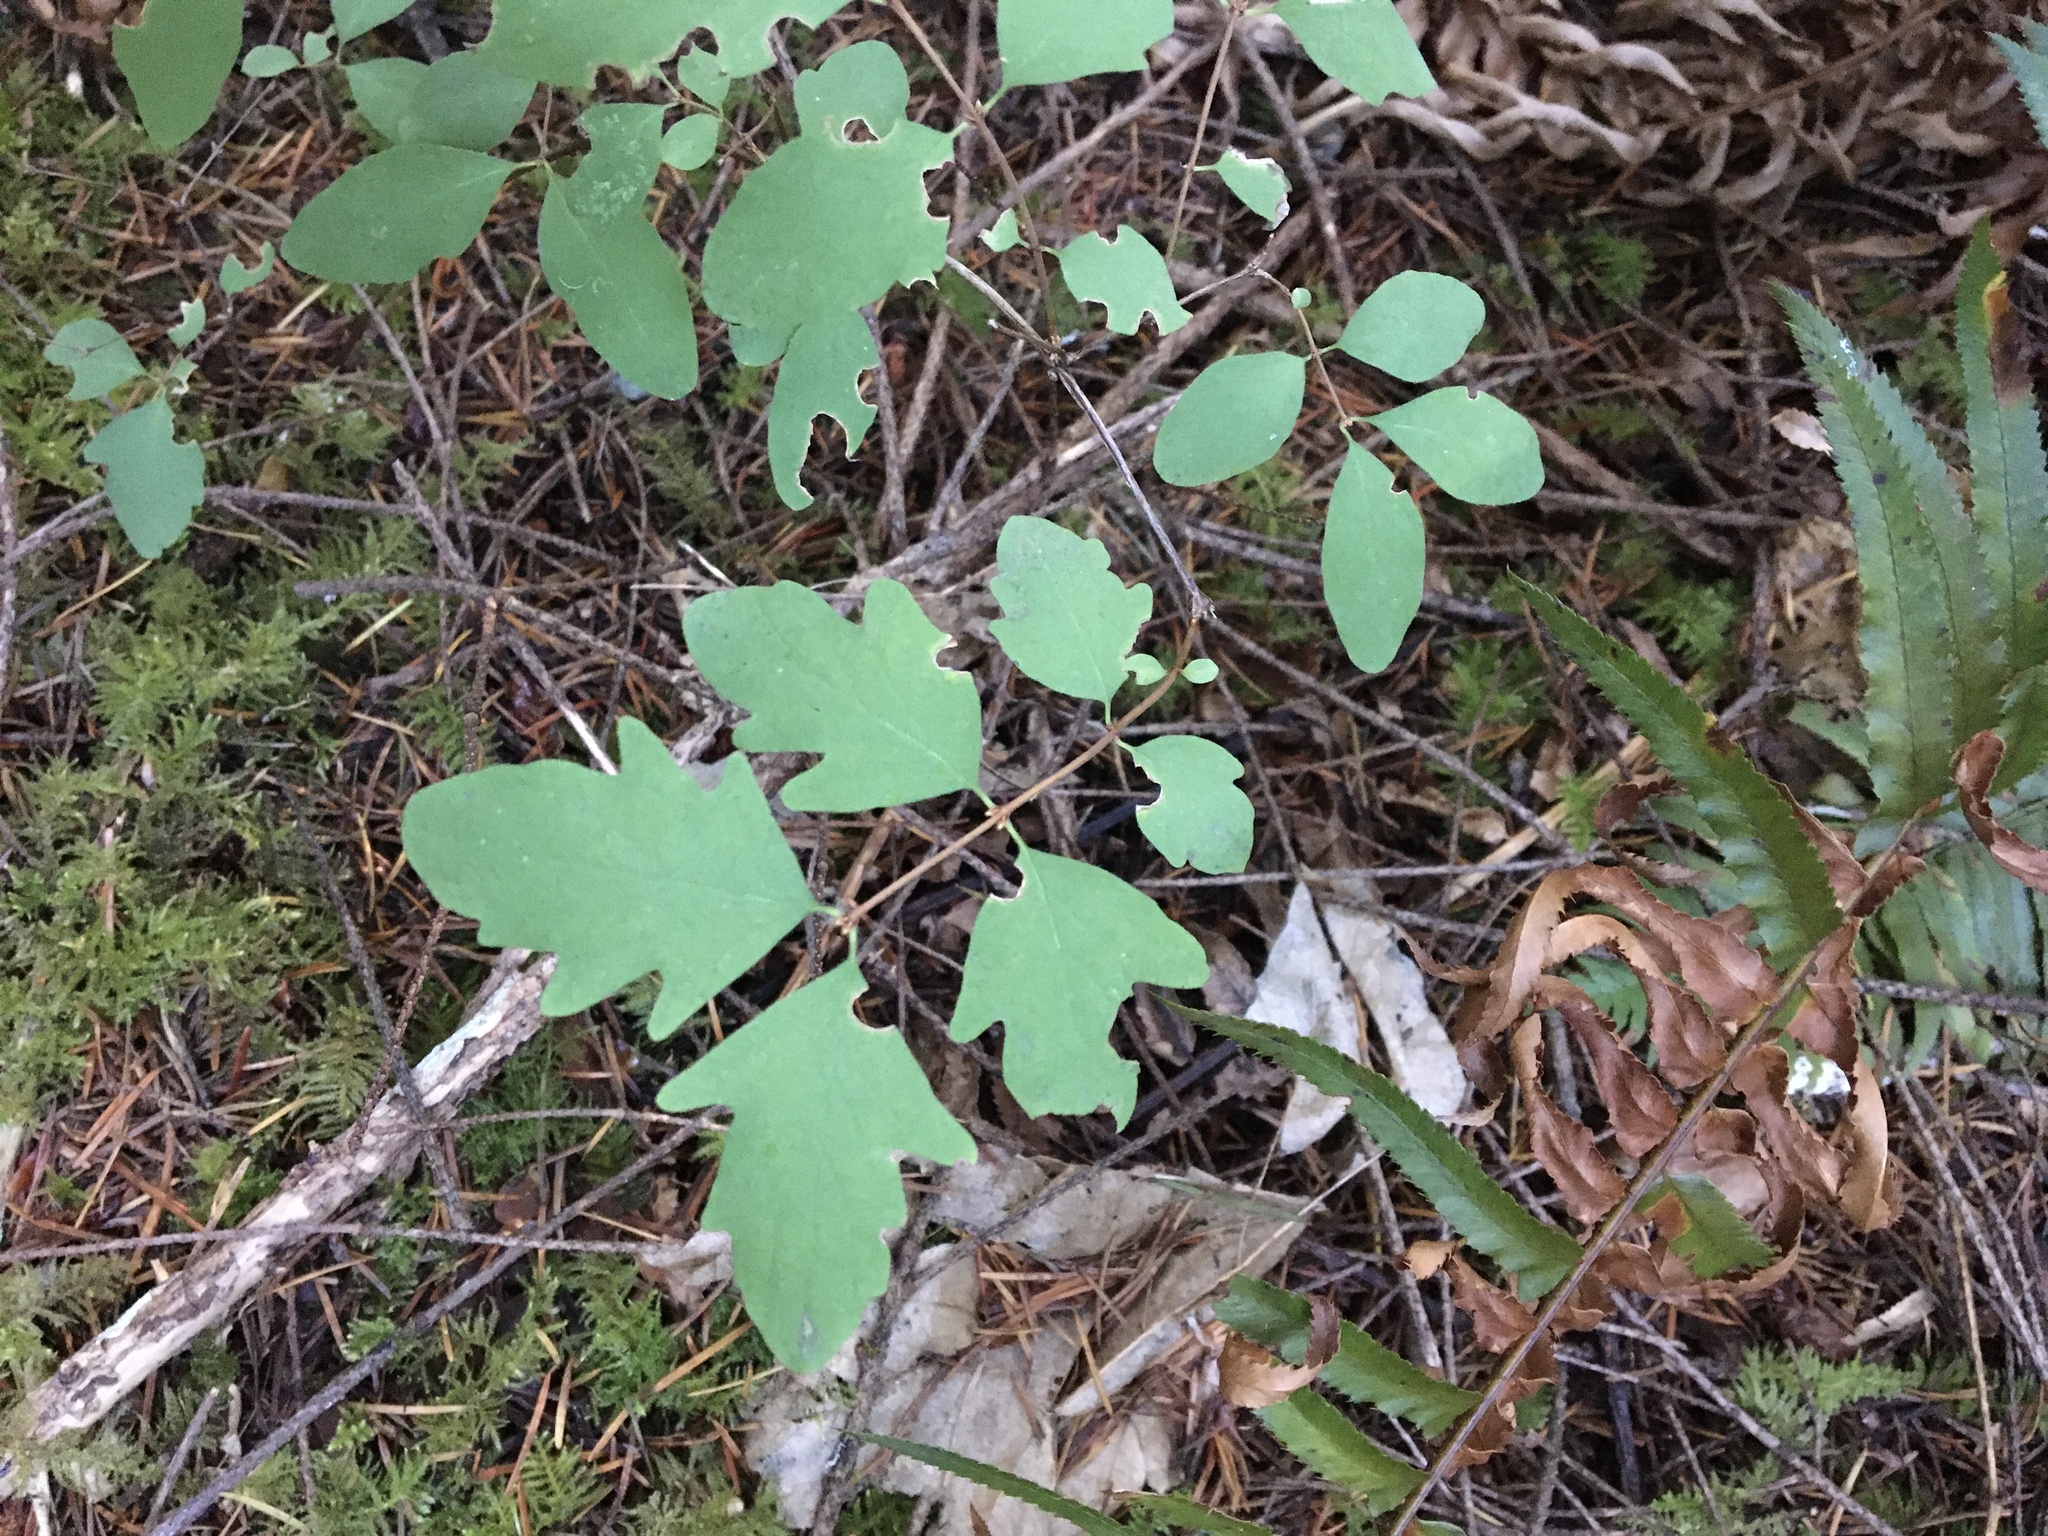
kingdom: Plantae
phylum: Tracheophyta
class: Magnoliopsida
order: Dipsacales
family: Caprifoliaceae
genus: Symphoricarpos
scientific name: Symphoricarpos mollis
